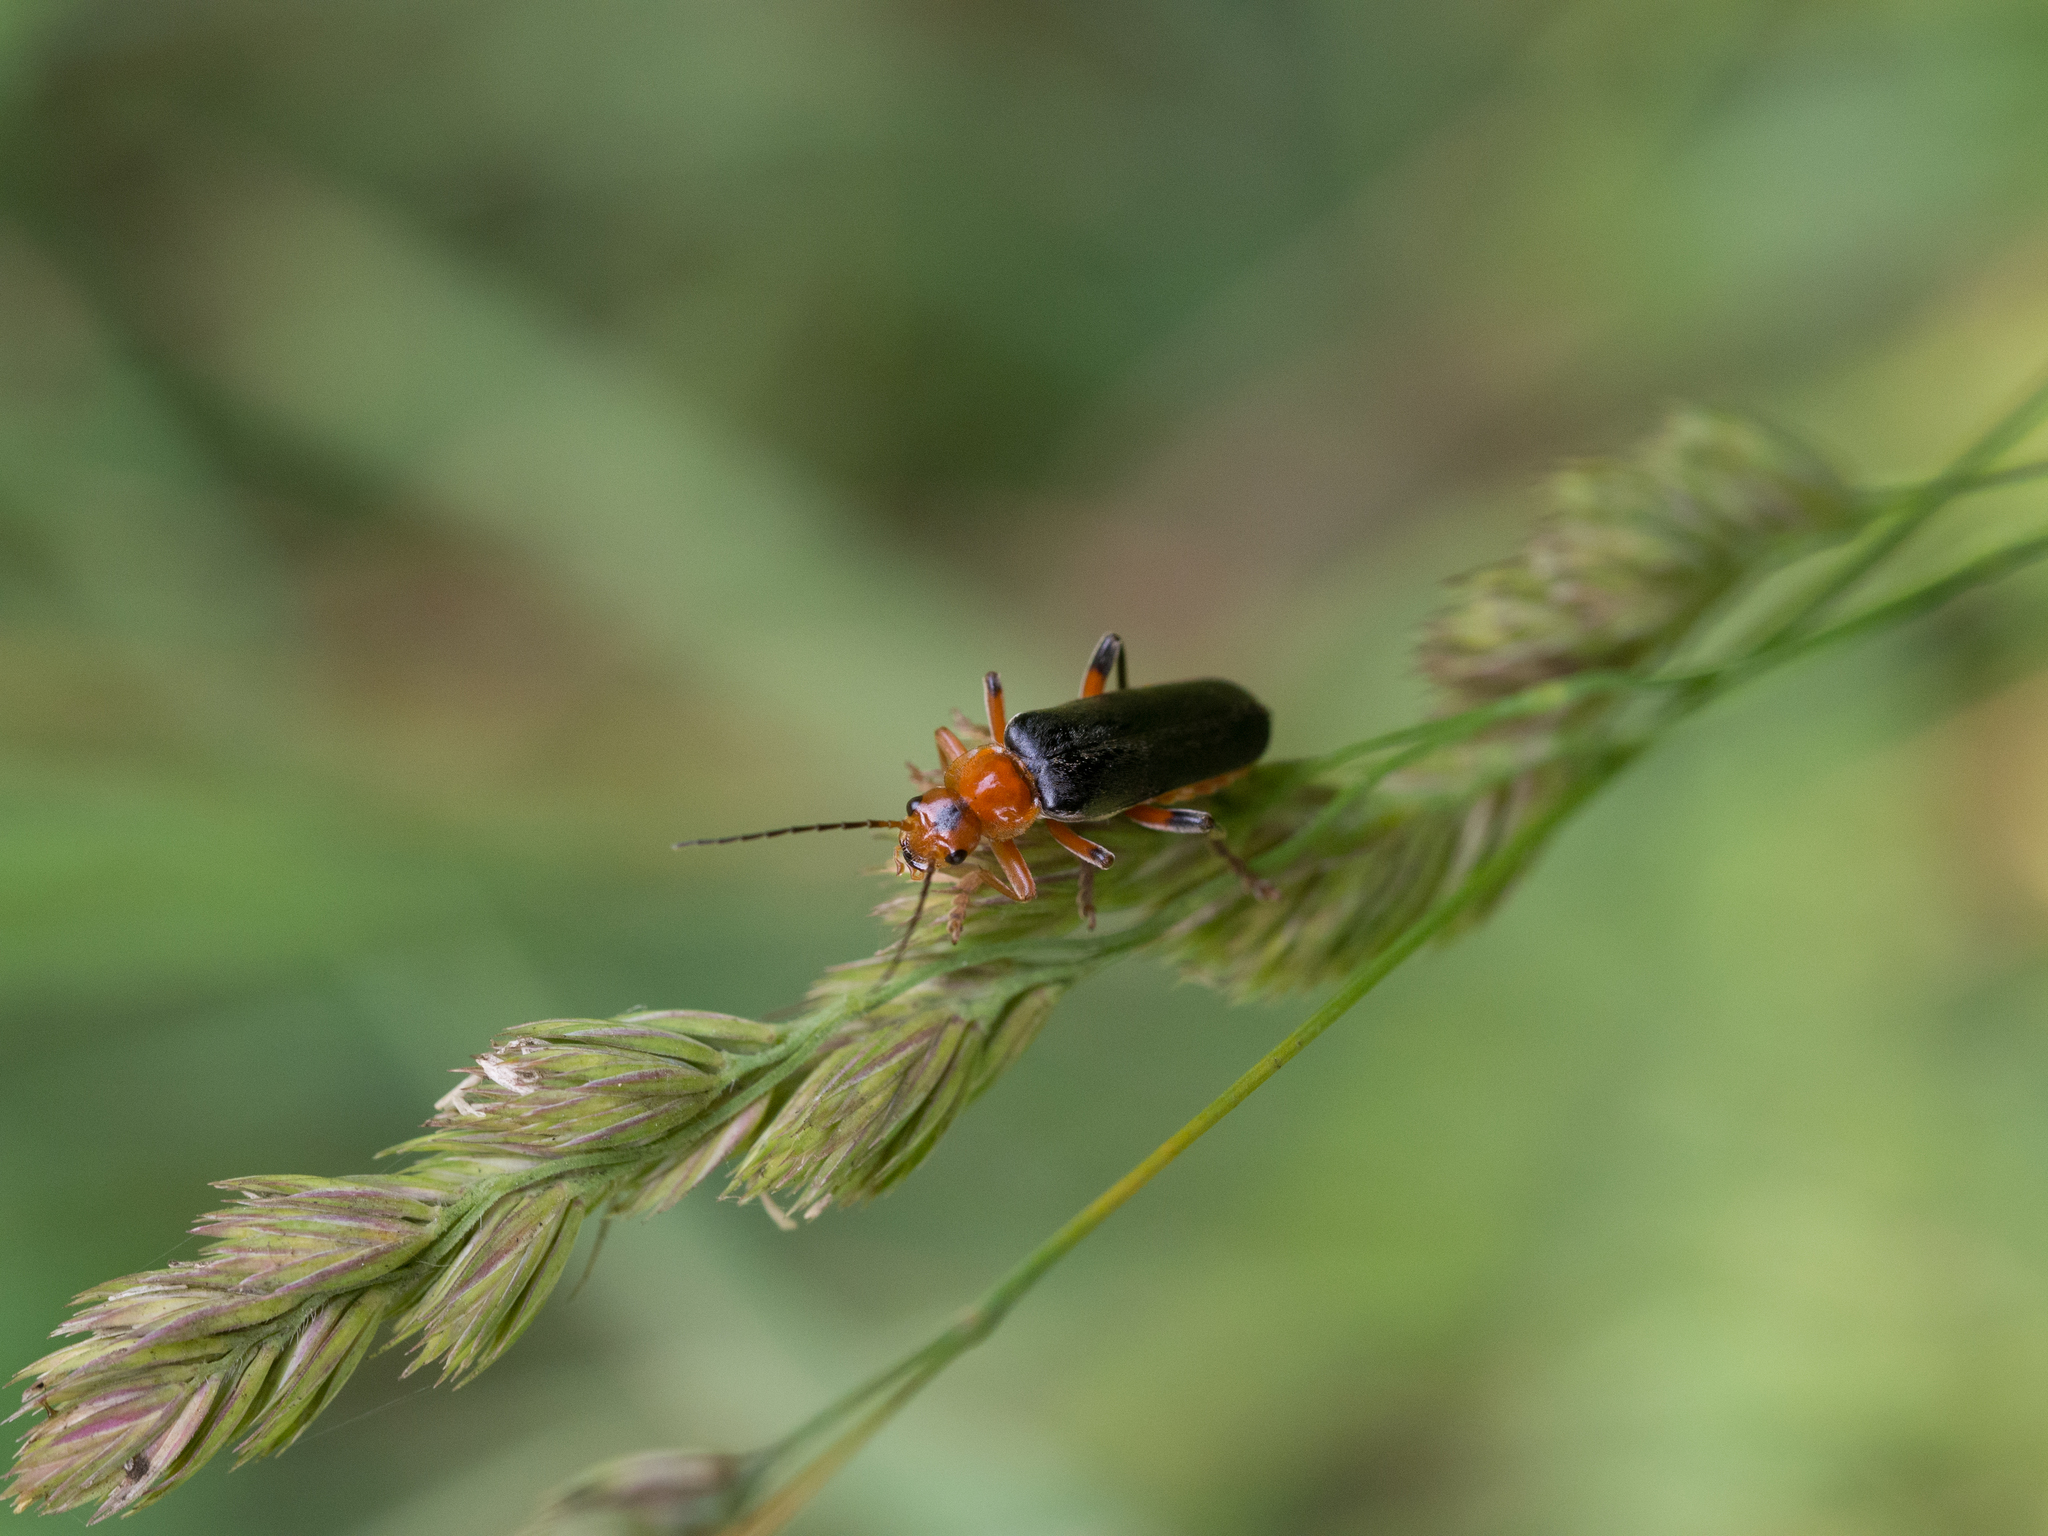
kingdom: Animalia
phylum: Arthropoda
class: Insecta
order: Coleoptera
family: Cantharidae
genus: Cantharis
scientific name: Cantharis livida
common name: Livid soldier beetle
